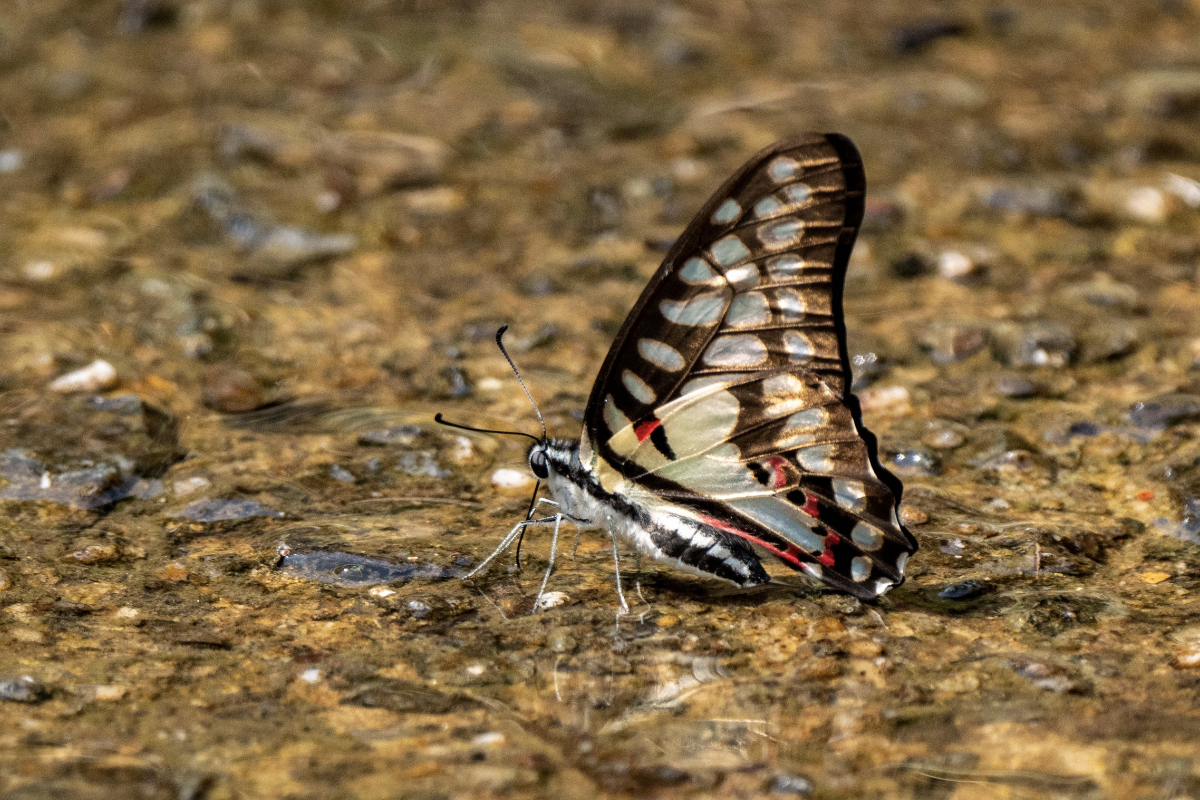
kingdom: Animalia
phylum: Arthropoda
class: Insecta
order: Lepidoptera
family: Papilionidae
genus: Graphium
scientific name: Graphium doson
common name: Common jay
